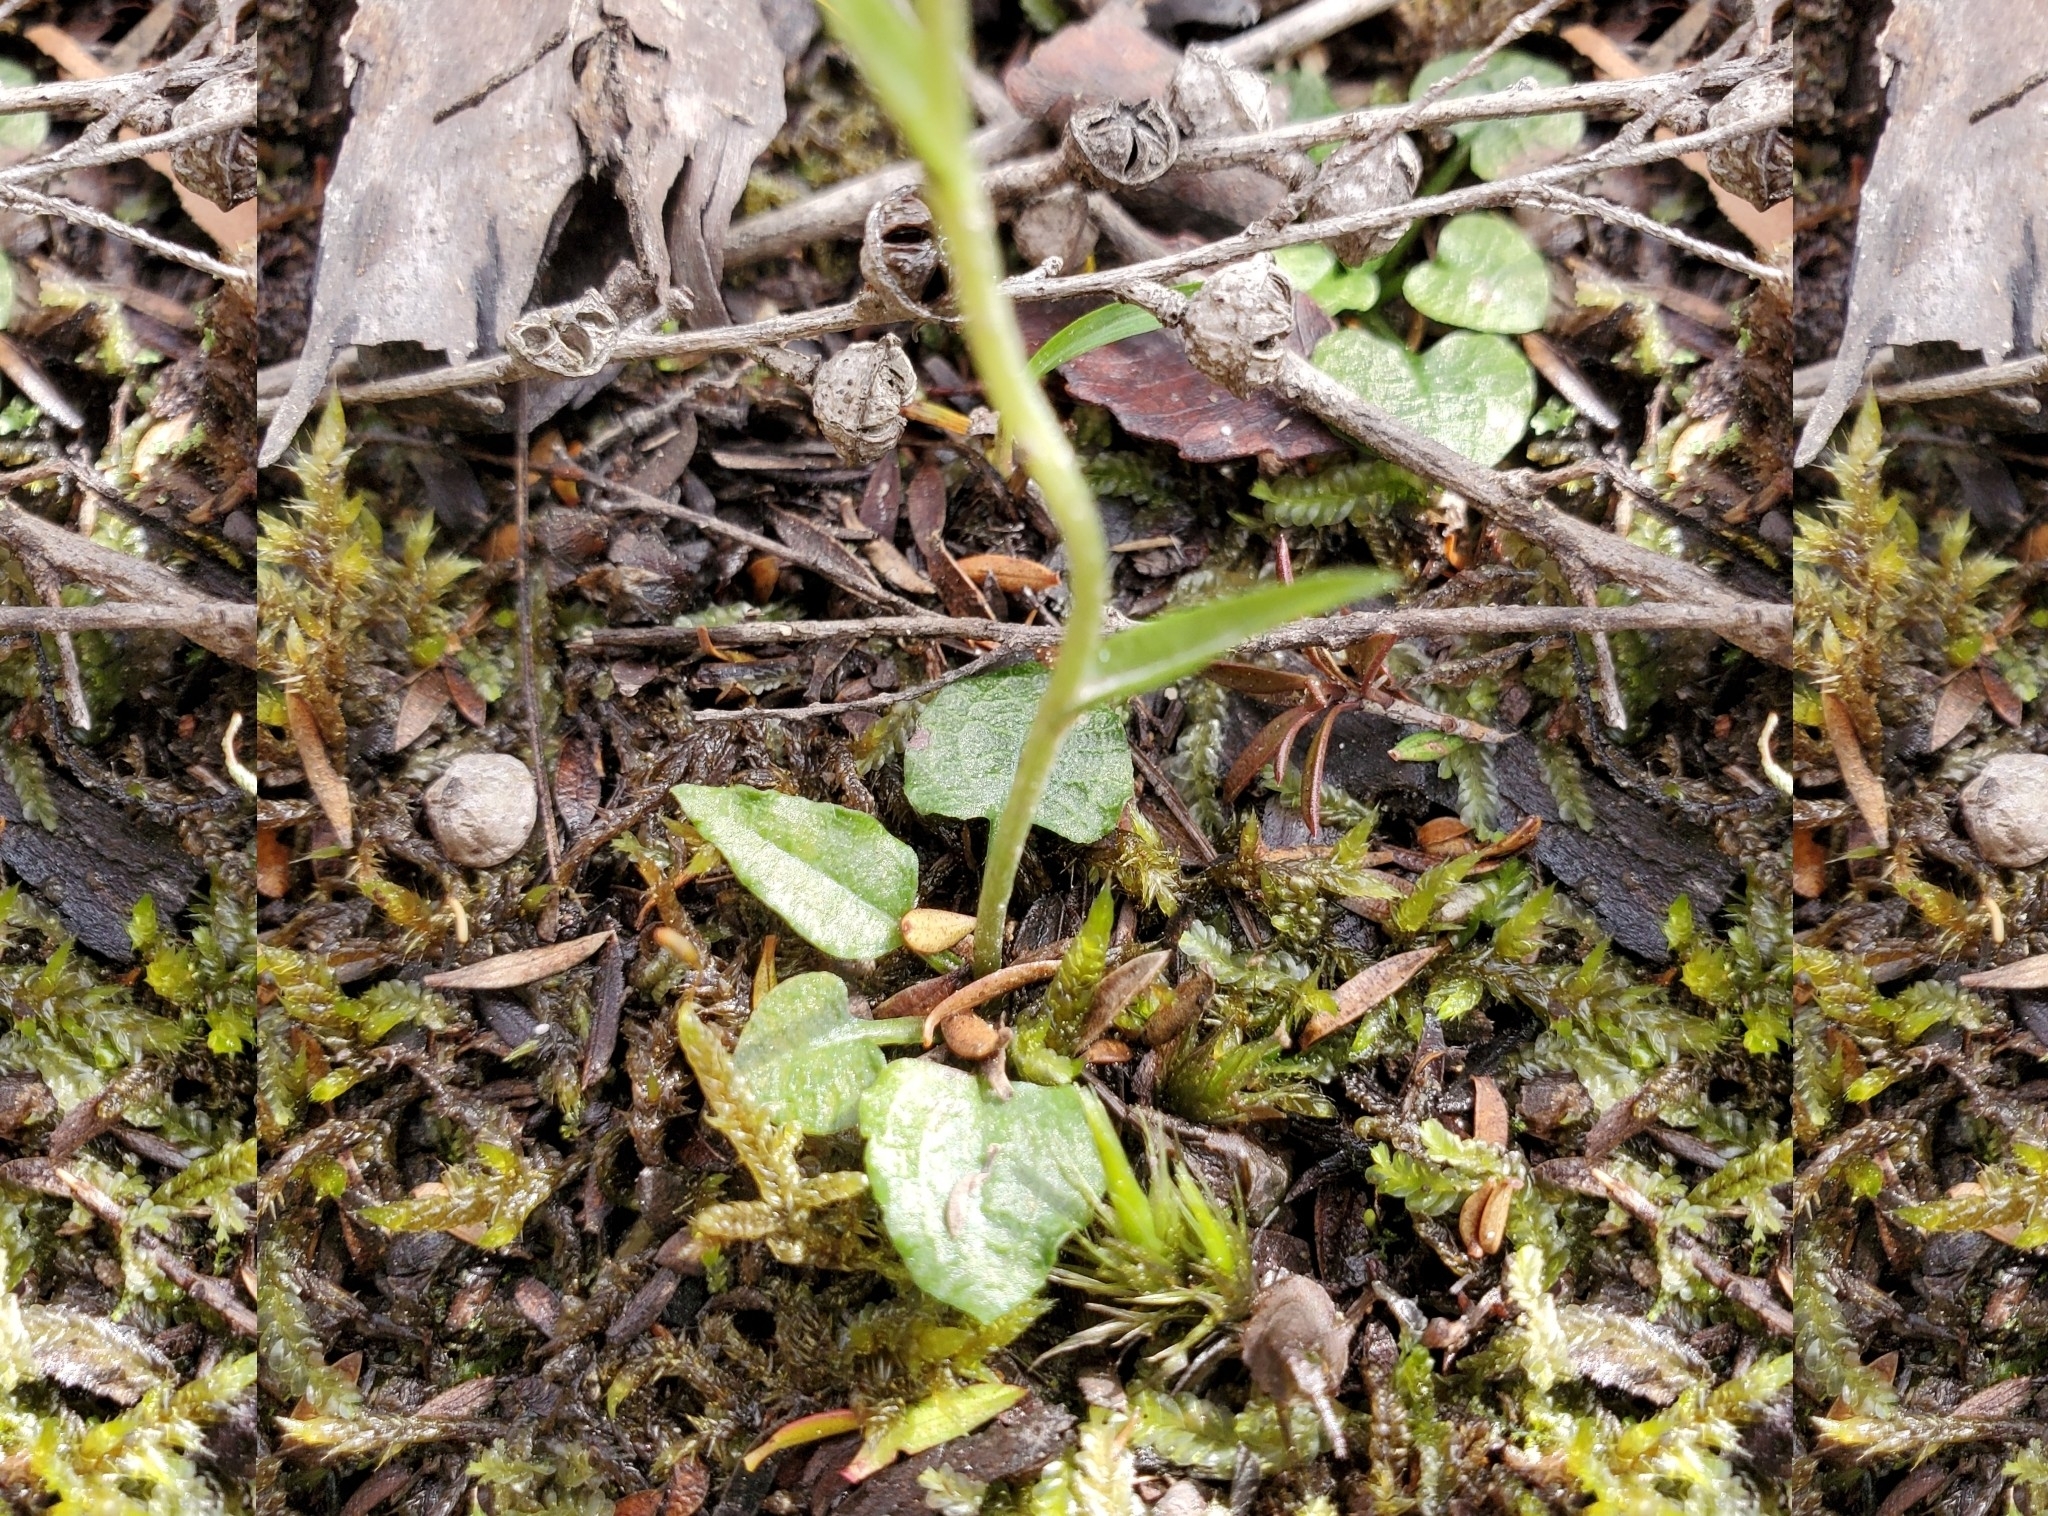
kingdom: Plantae
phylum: Tracheophyta
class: Liliopsida
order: Asparagales
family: Orchidaceae
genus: Pterostylis
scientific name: Pterostylis trullifolia
